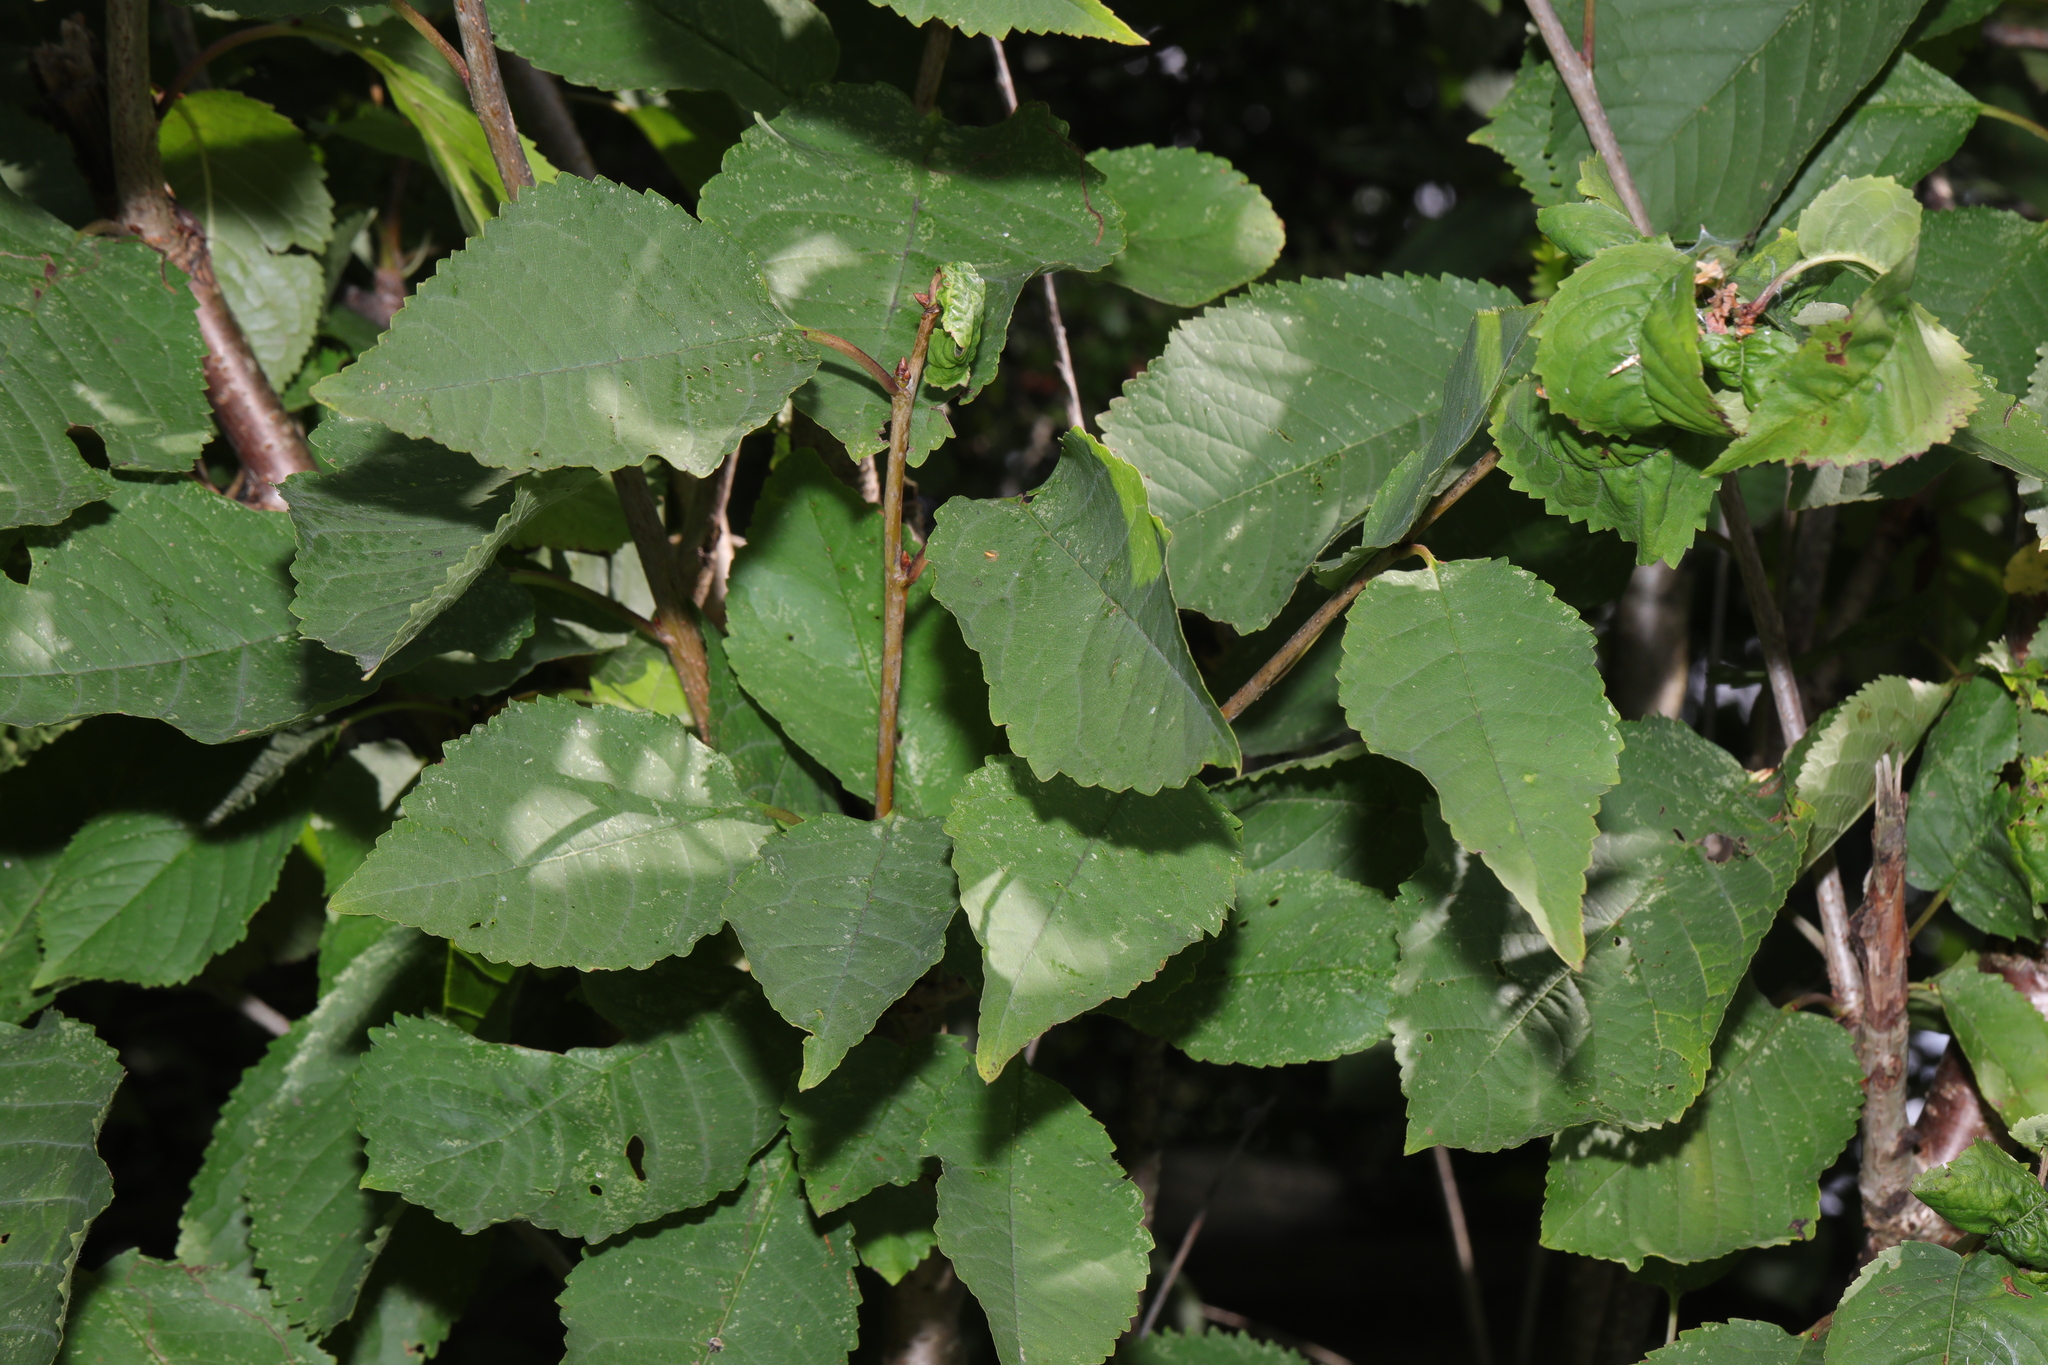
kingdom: Plantae
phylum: Tracheophyta
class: Magnoliopsida
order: Rosales
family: Rosaceae
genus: Prunus
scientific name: Prunus avium
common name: Sweet cherry
